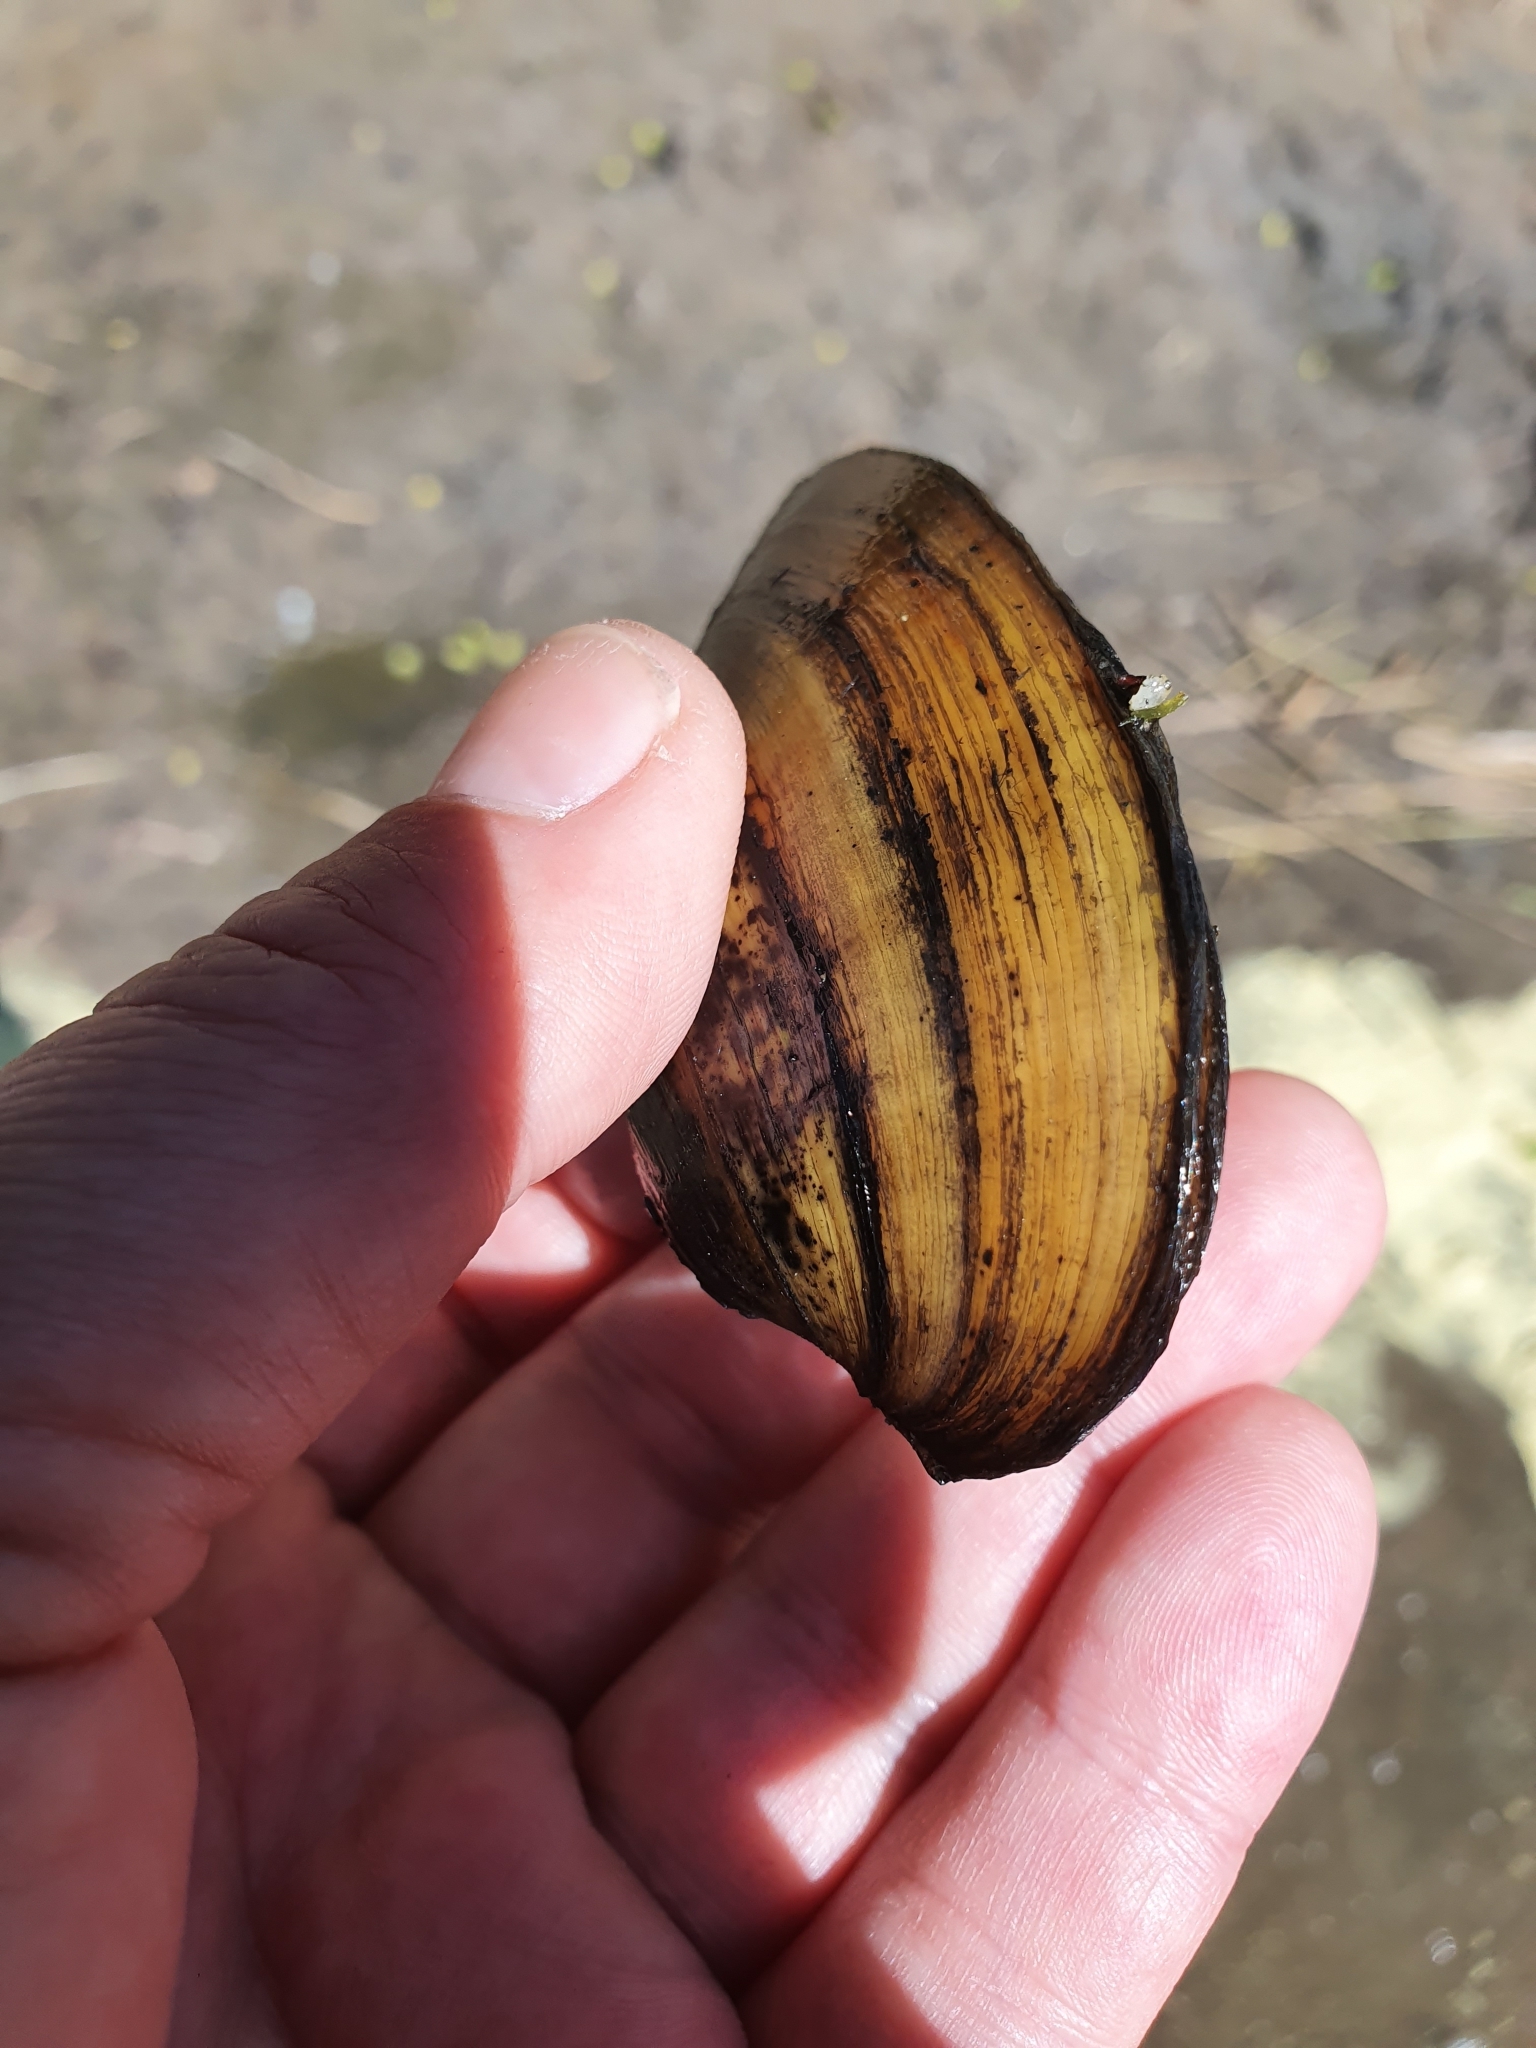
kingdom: Animalia
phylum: Mollusca
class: Bivalvia
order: Unionida
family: Unionidae
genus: Unio
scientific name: Unio tumidus
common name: Swollen river mussel
